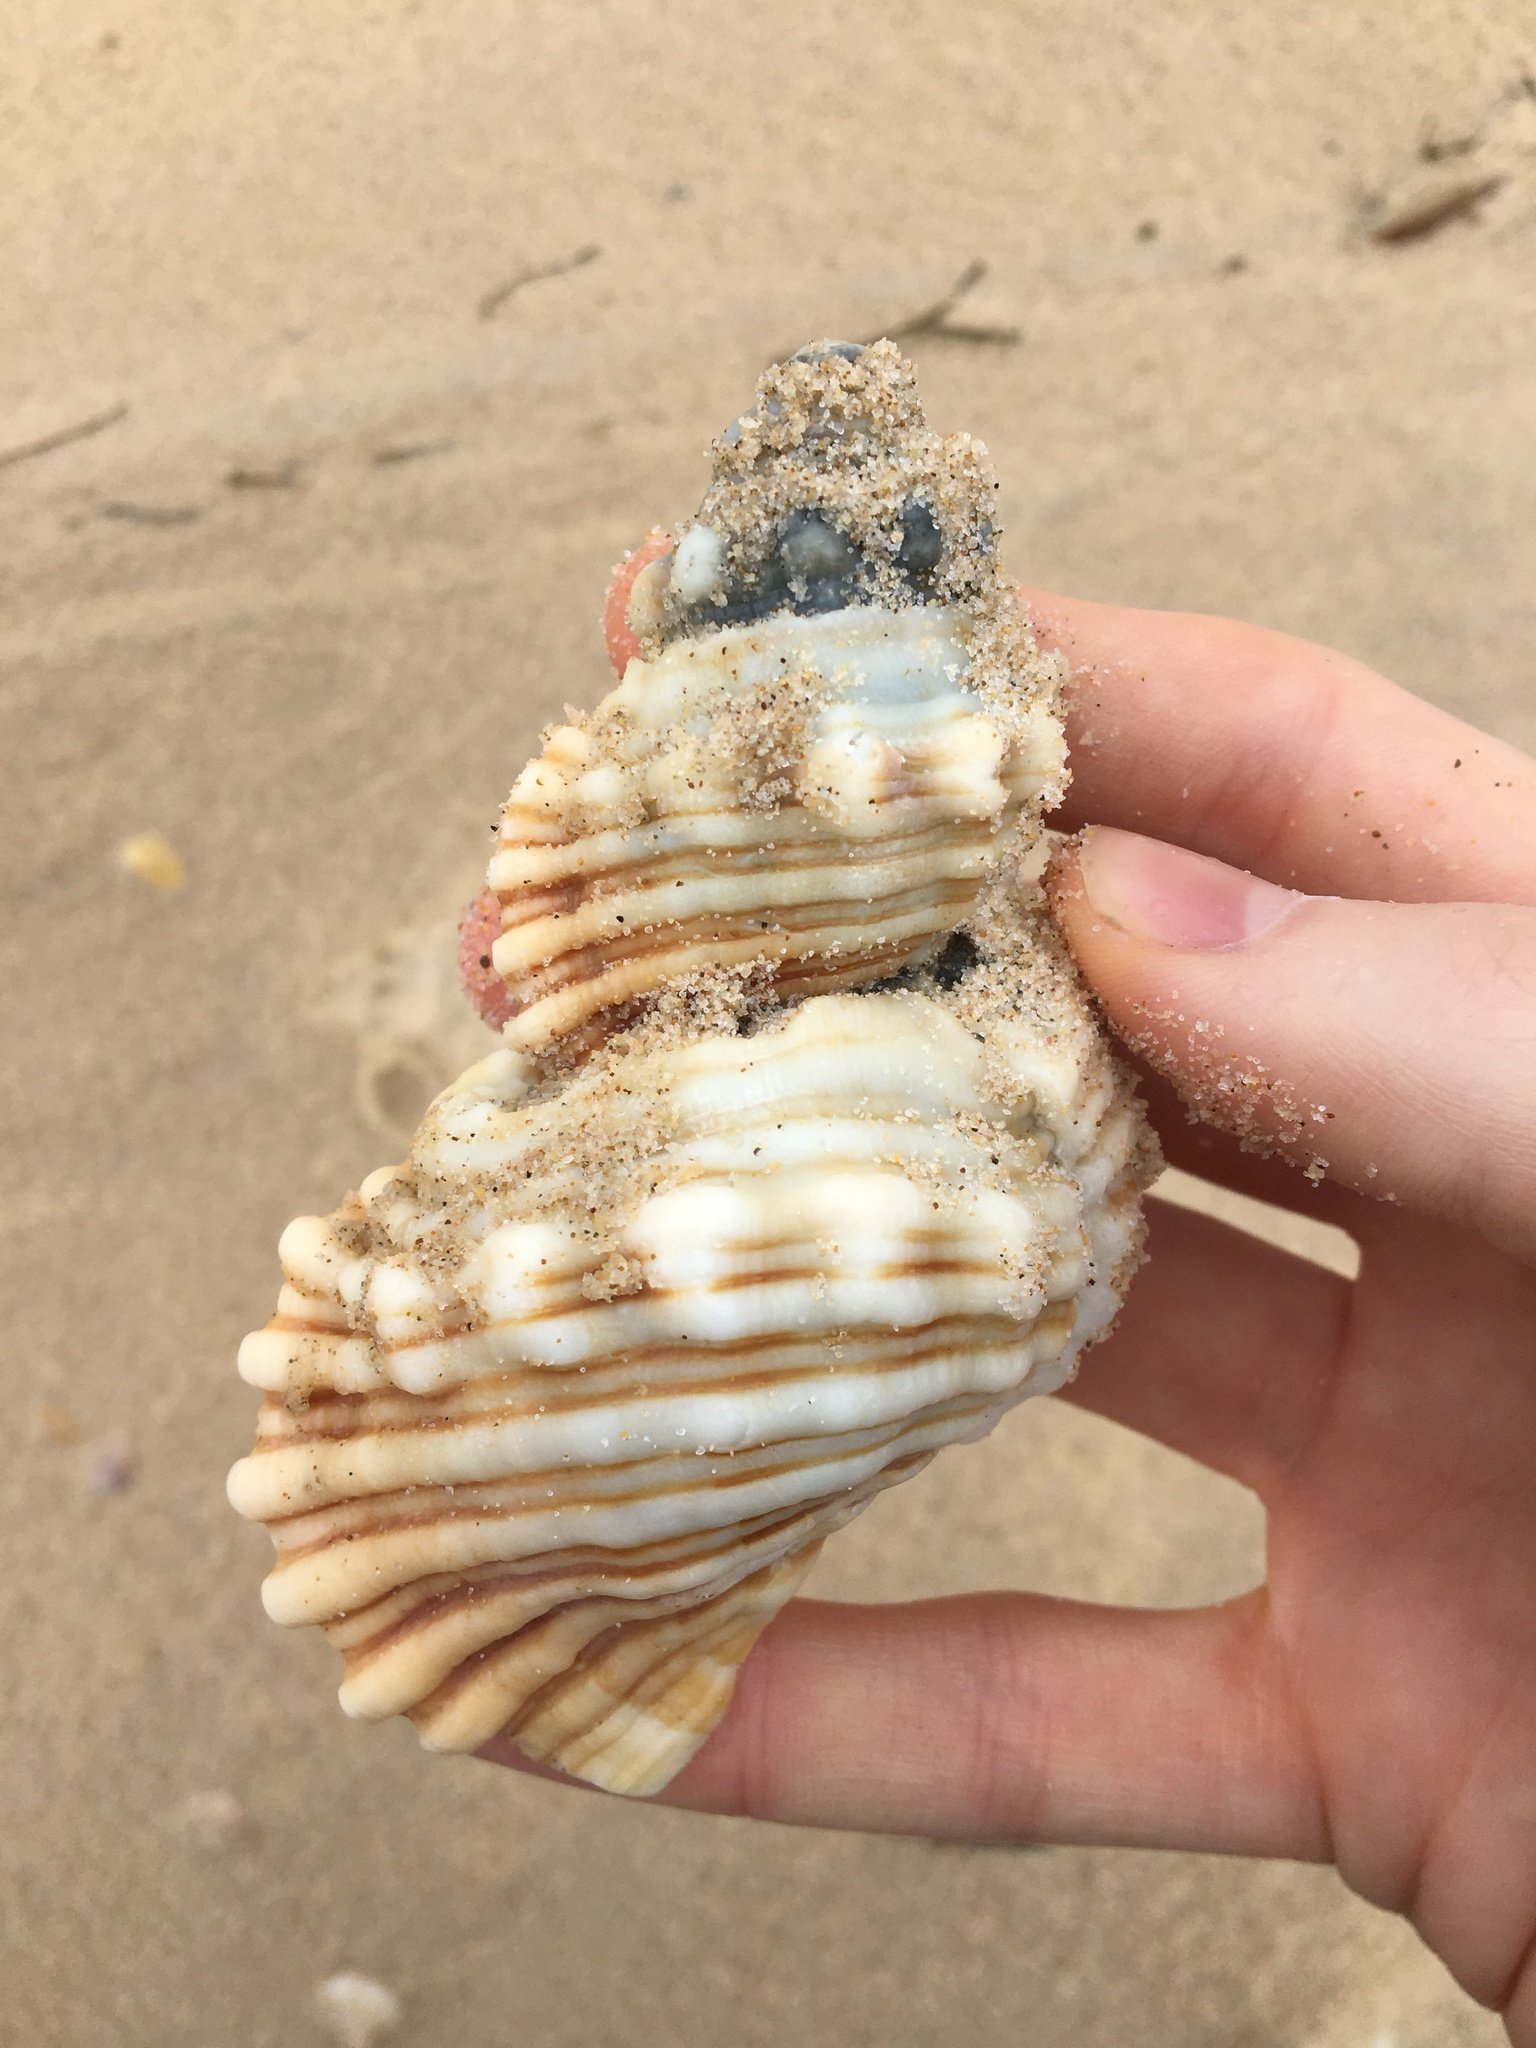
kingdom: Animalia
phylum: Mollusca
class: Gastropoda
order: Littorinimorpha
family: Cymatiidae
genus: Cabestana
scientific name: Cabestana spengleri
